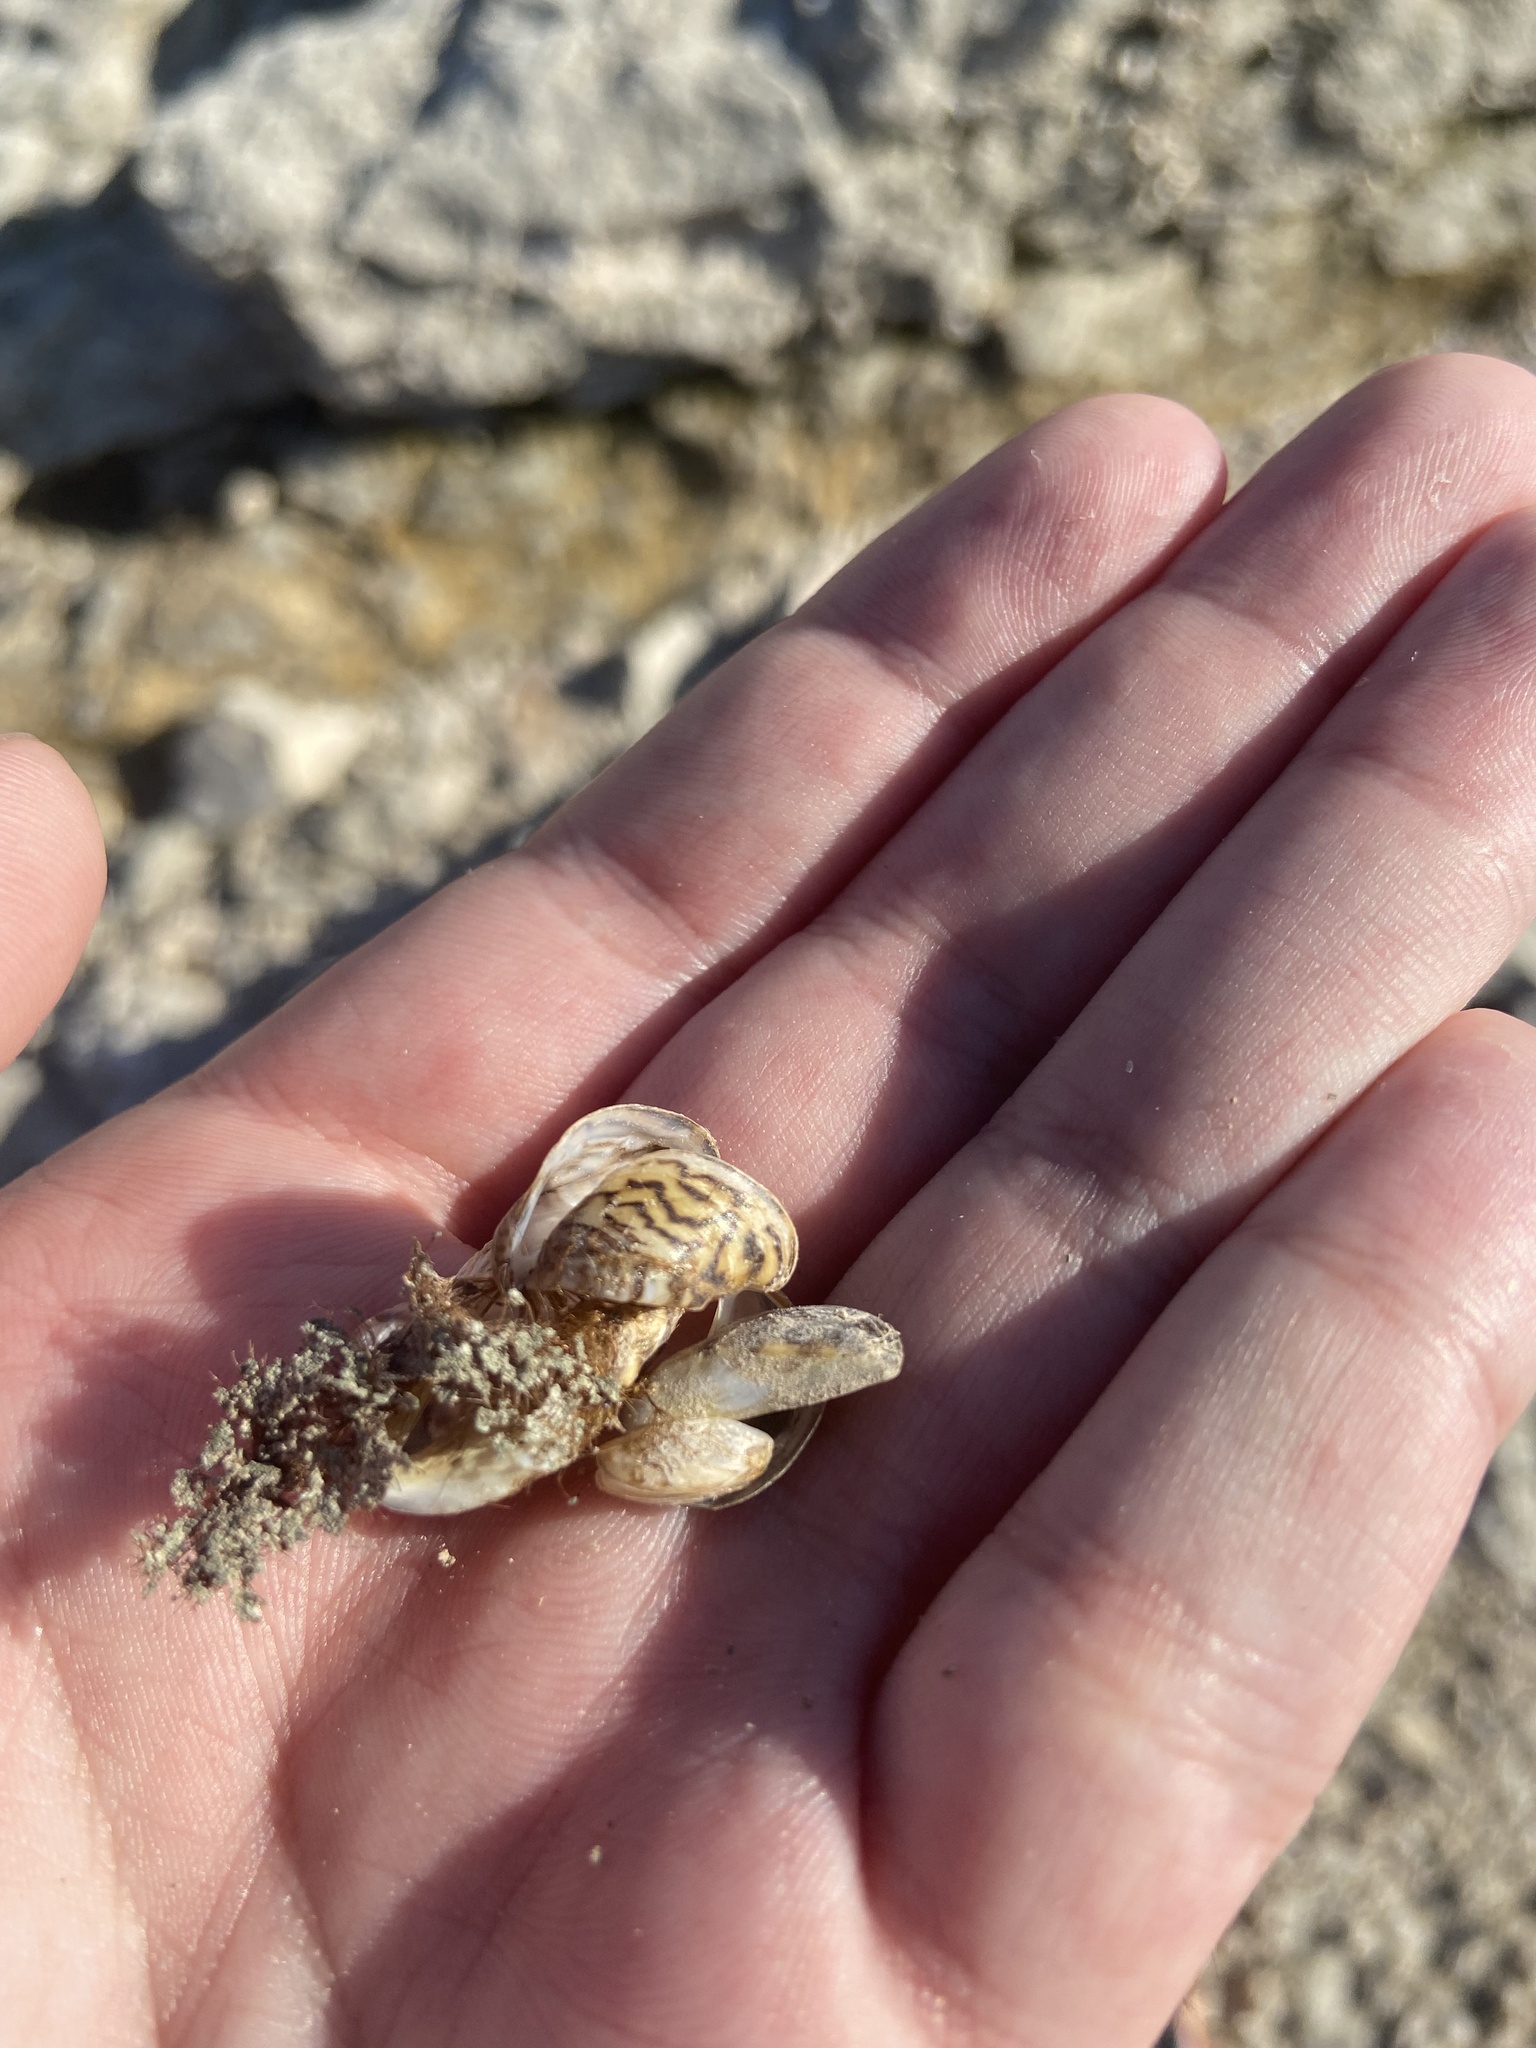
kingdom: Animalia
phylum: Mollusca
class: Bivalvia
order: Myida
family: Dreissenidae
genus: Dreissena
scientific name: Dreissena polymorpha
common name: Zebra mussel
